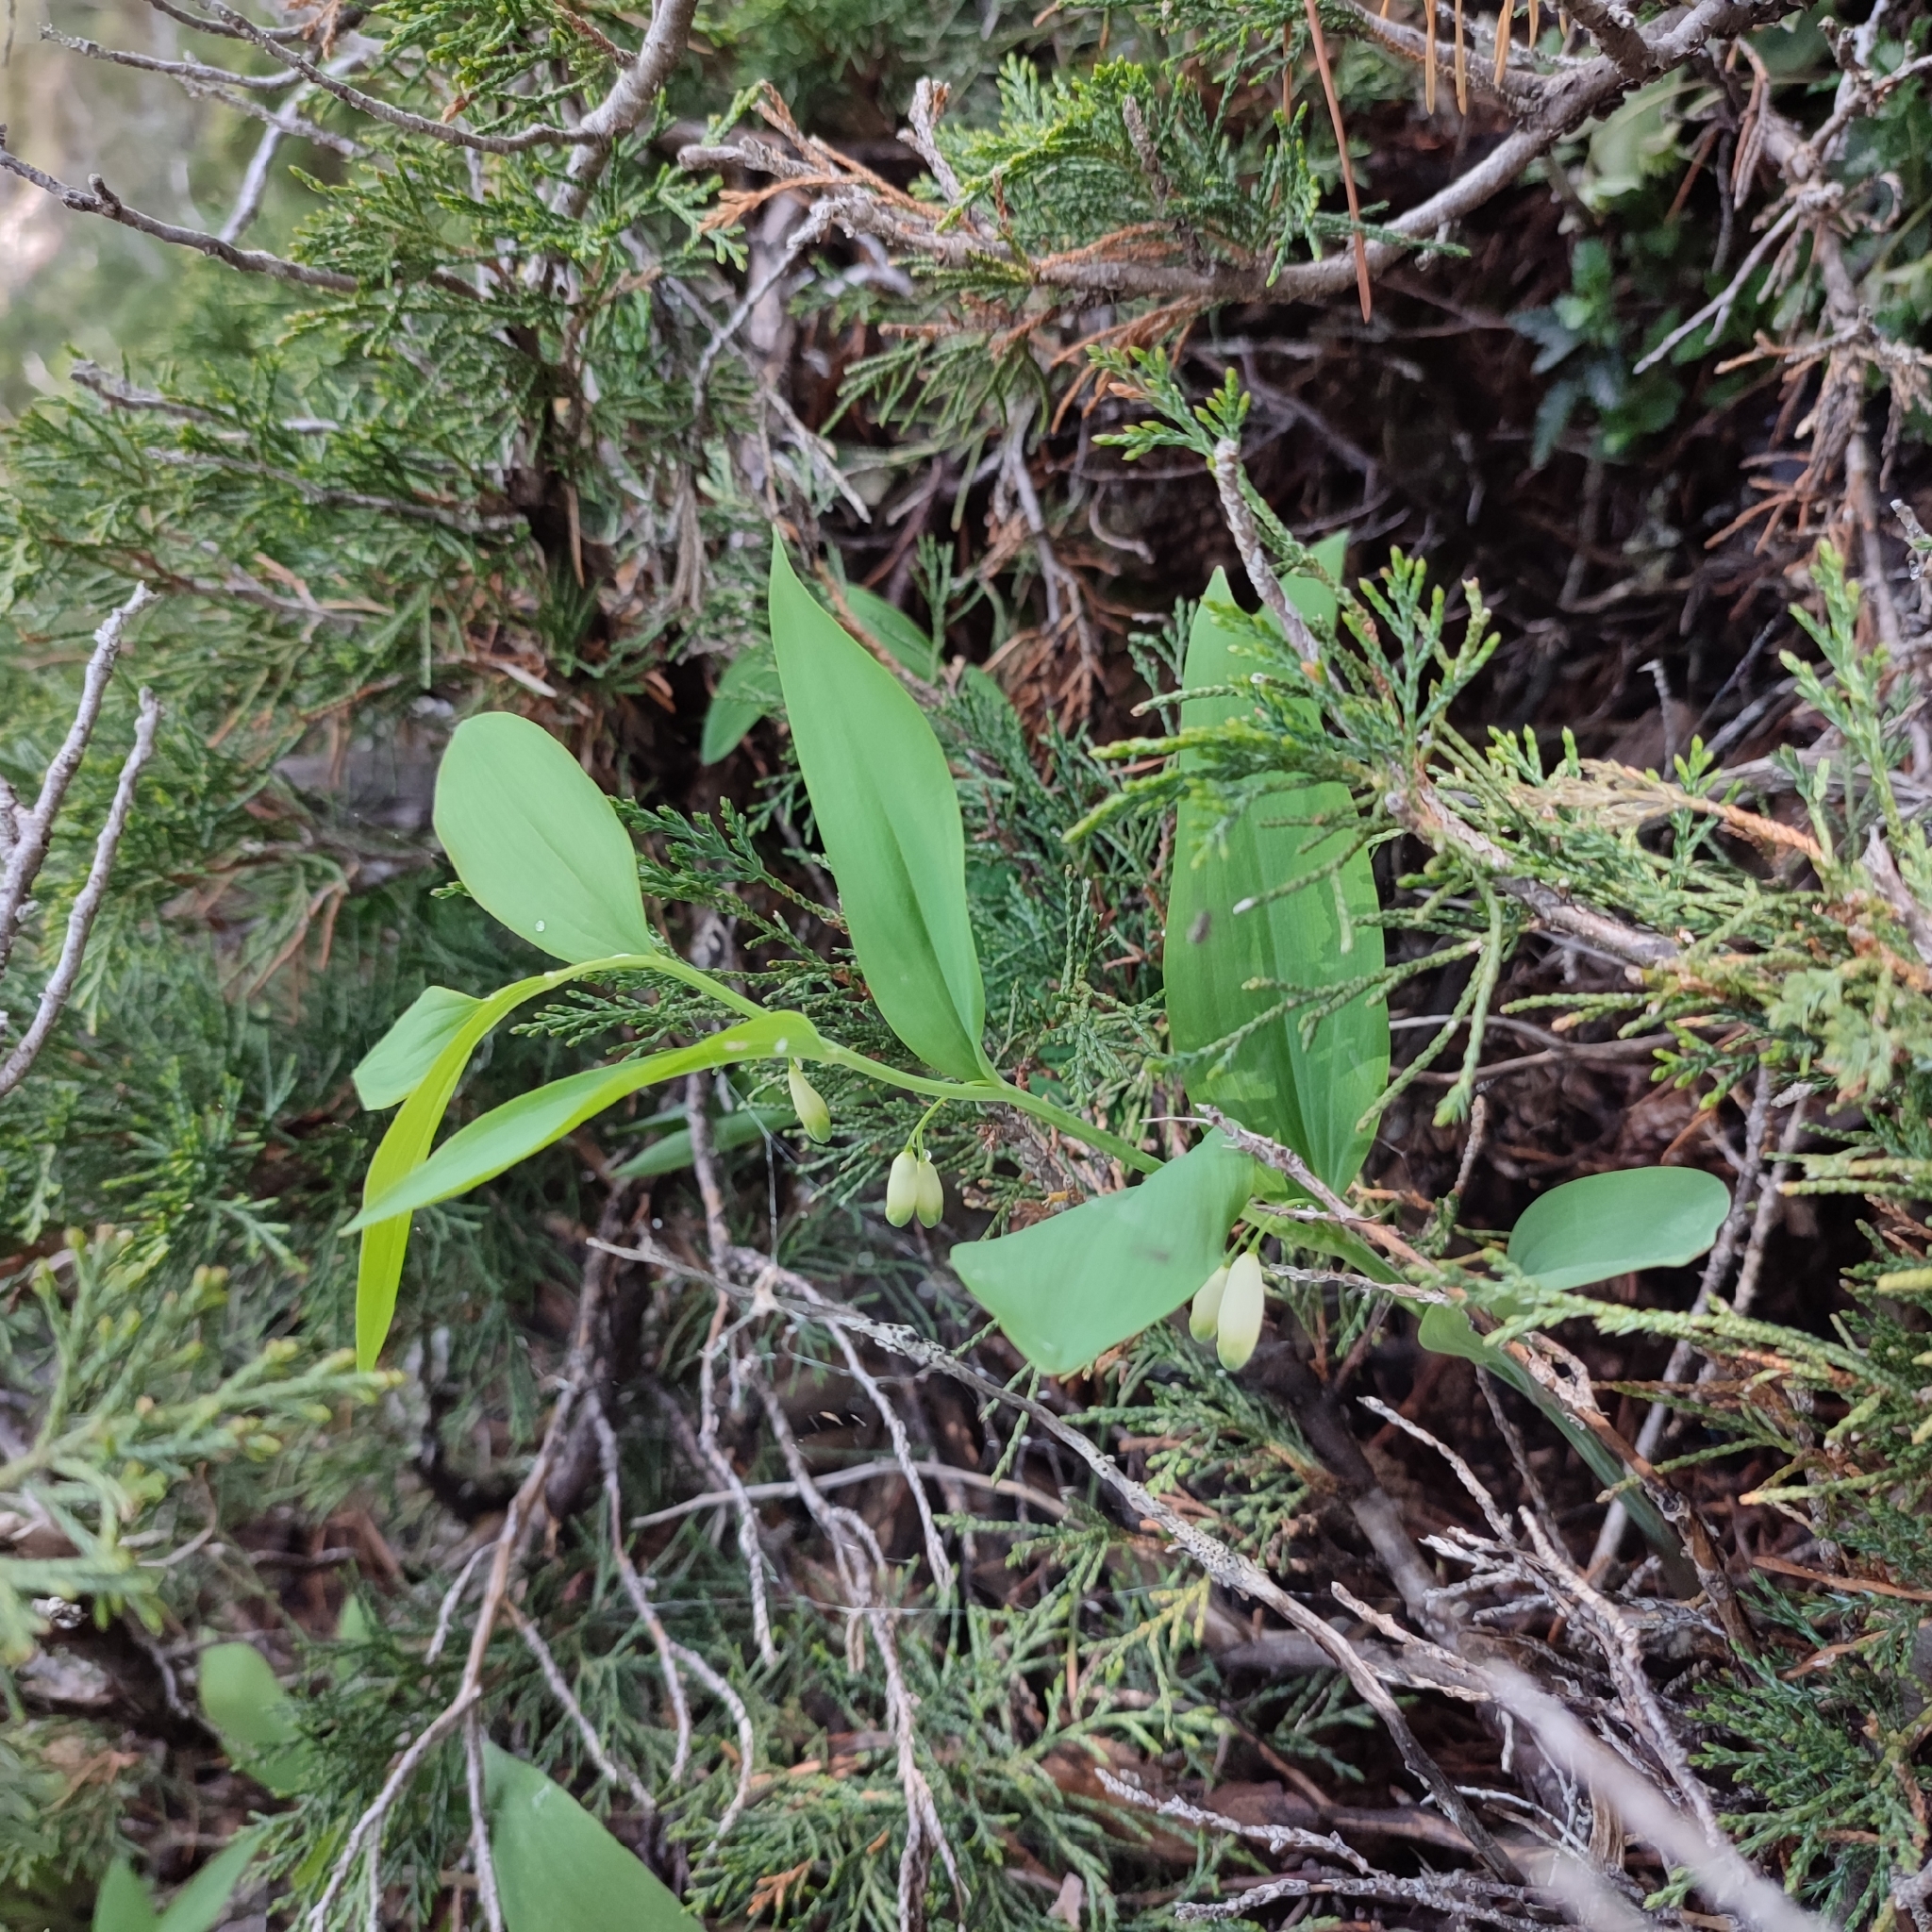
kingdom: Plantae
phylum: Tracheophyta
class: Liliopsida
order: Asparagales
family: Asparagaceae
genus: Polygonatum
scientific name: Polygonatum odoratum
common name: Angular solomon's-seal
